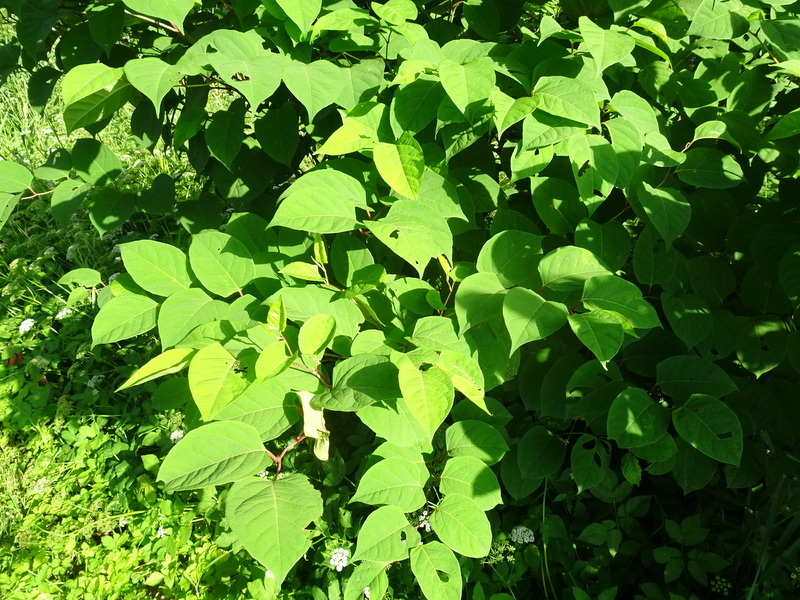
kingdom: Plantae
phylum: Tracheophyta
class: Magnoliopsida
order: Caryophyllales
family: Polygonaceae
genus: Reynoutria
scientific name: Reynoutria japonica
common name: Japanese knotweed
